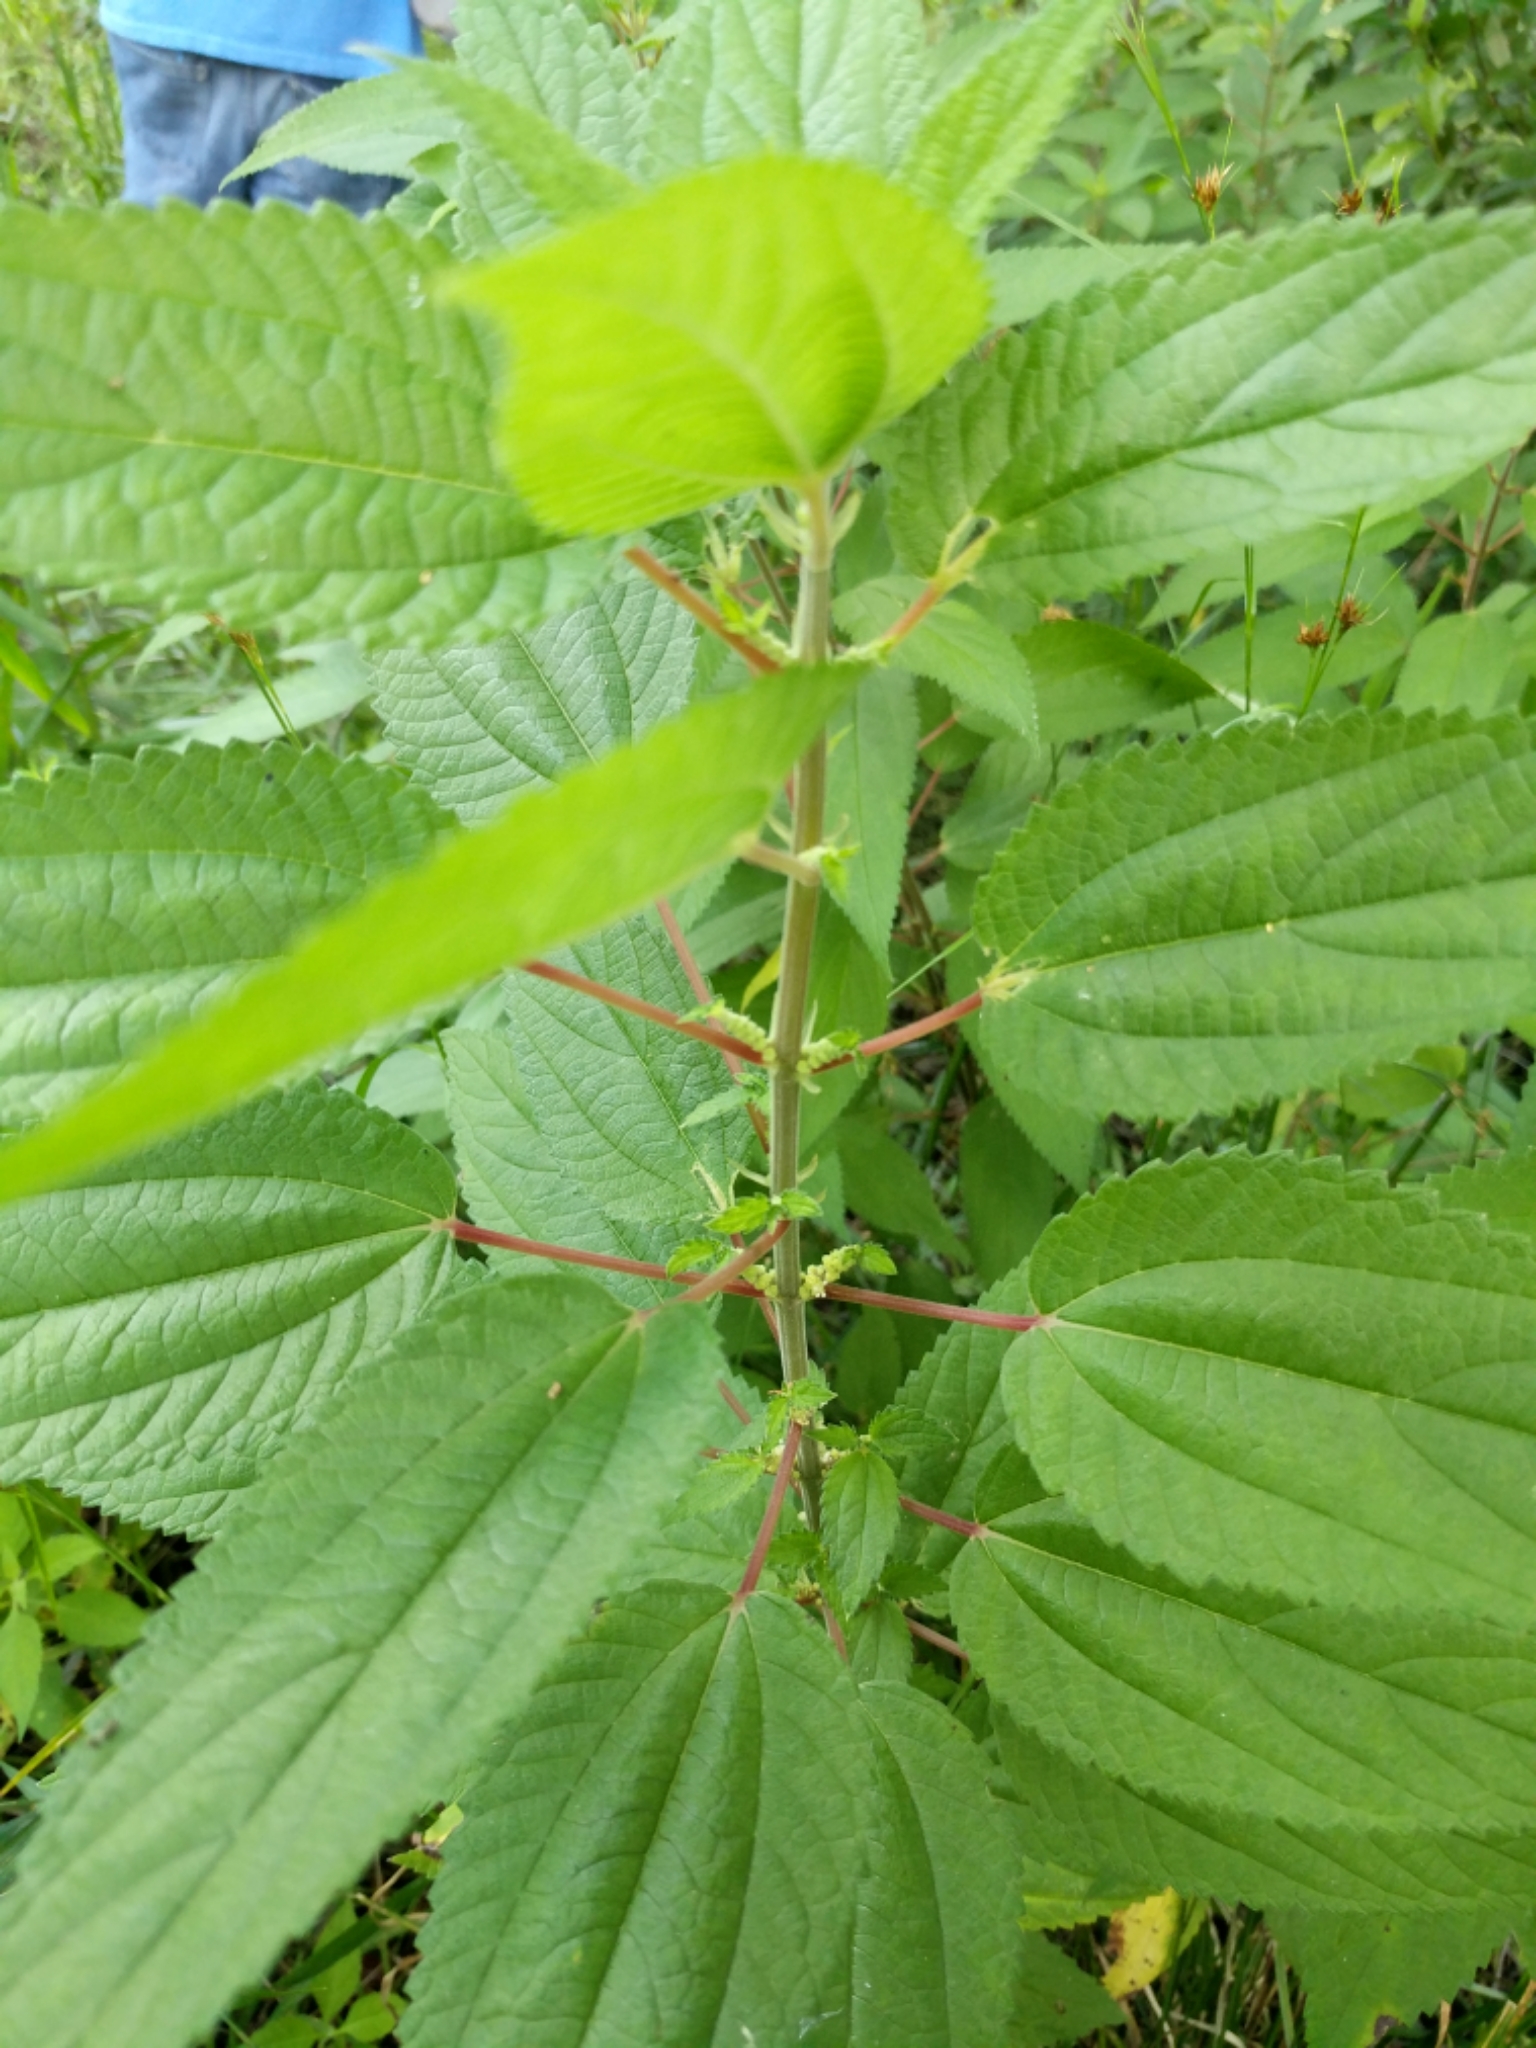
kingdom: Plantae
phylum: Tracheophyta
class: Magnoliopsida
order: Rosales
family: Urticaceae
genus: Boehmeria
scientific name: Boehmeria cylindrica
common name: Bog-hemp
